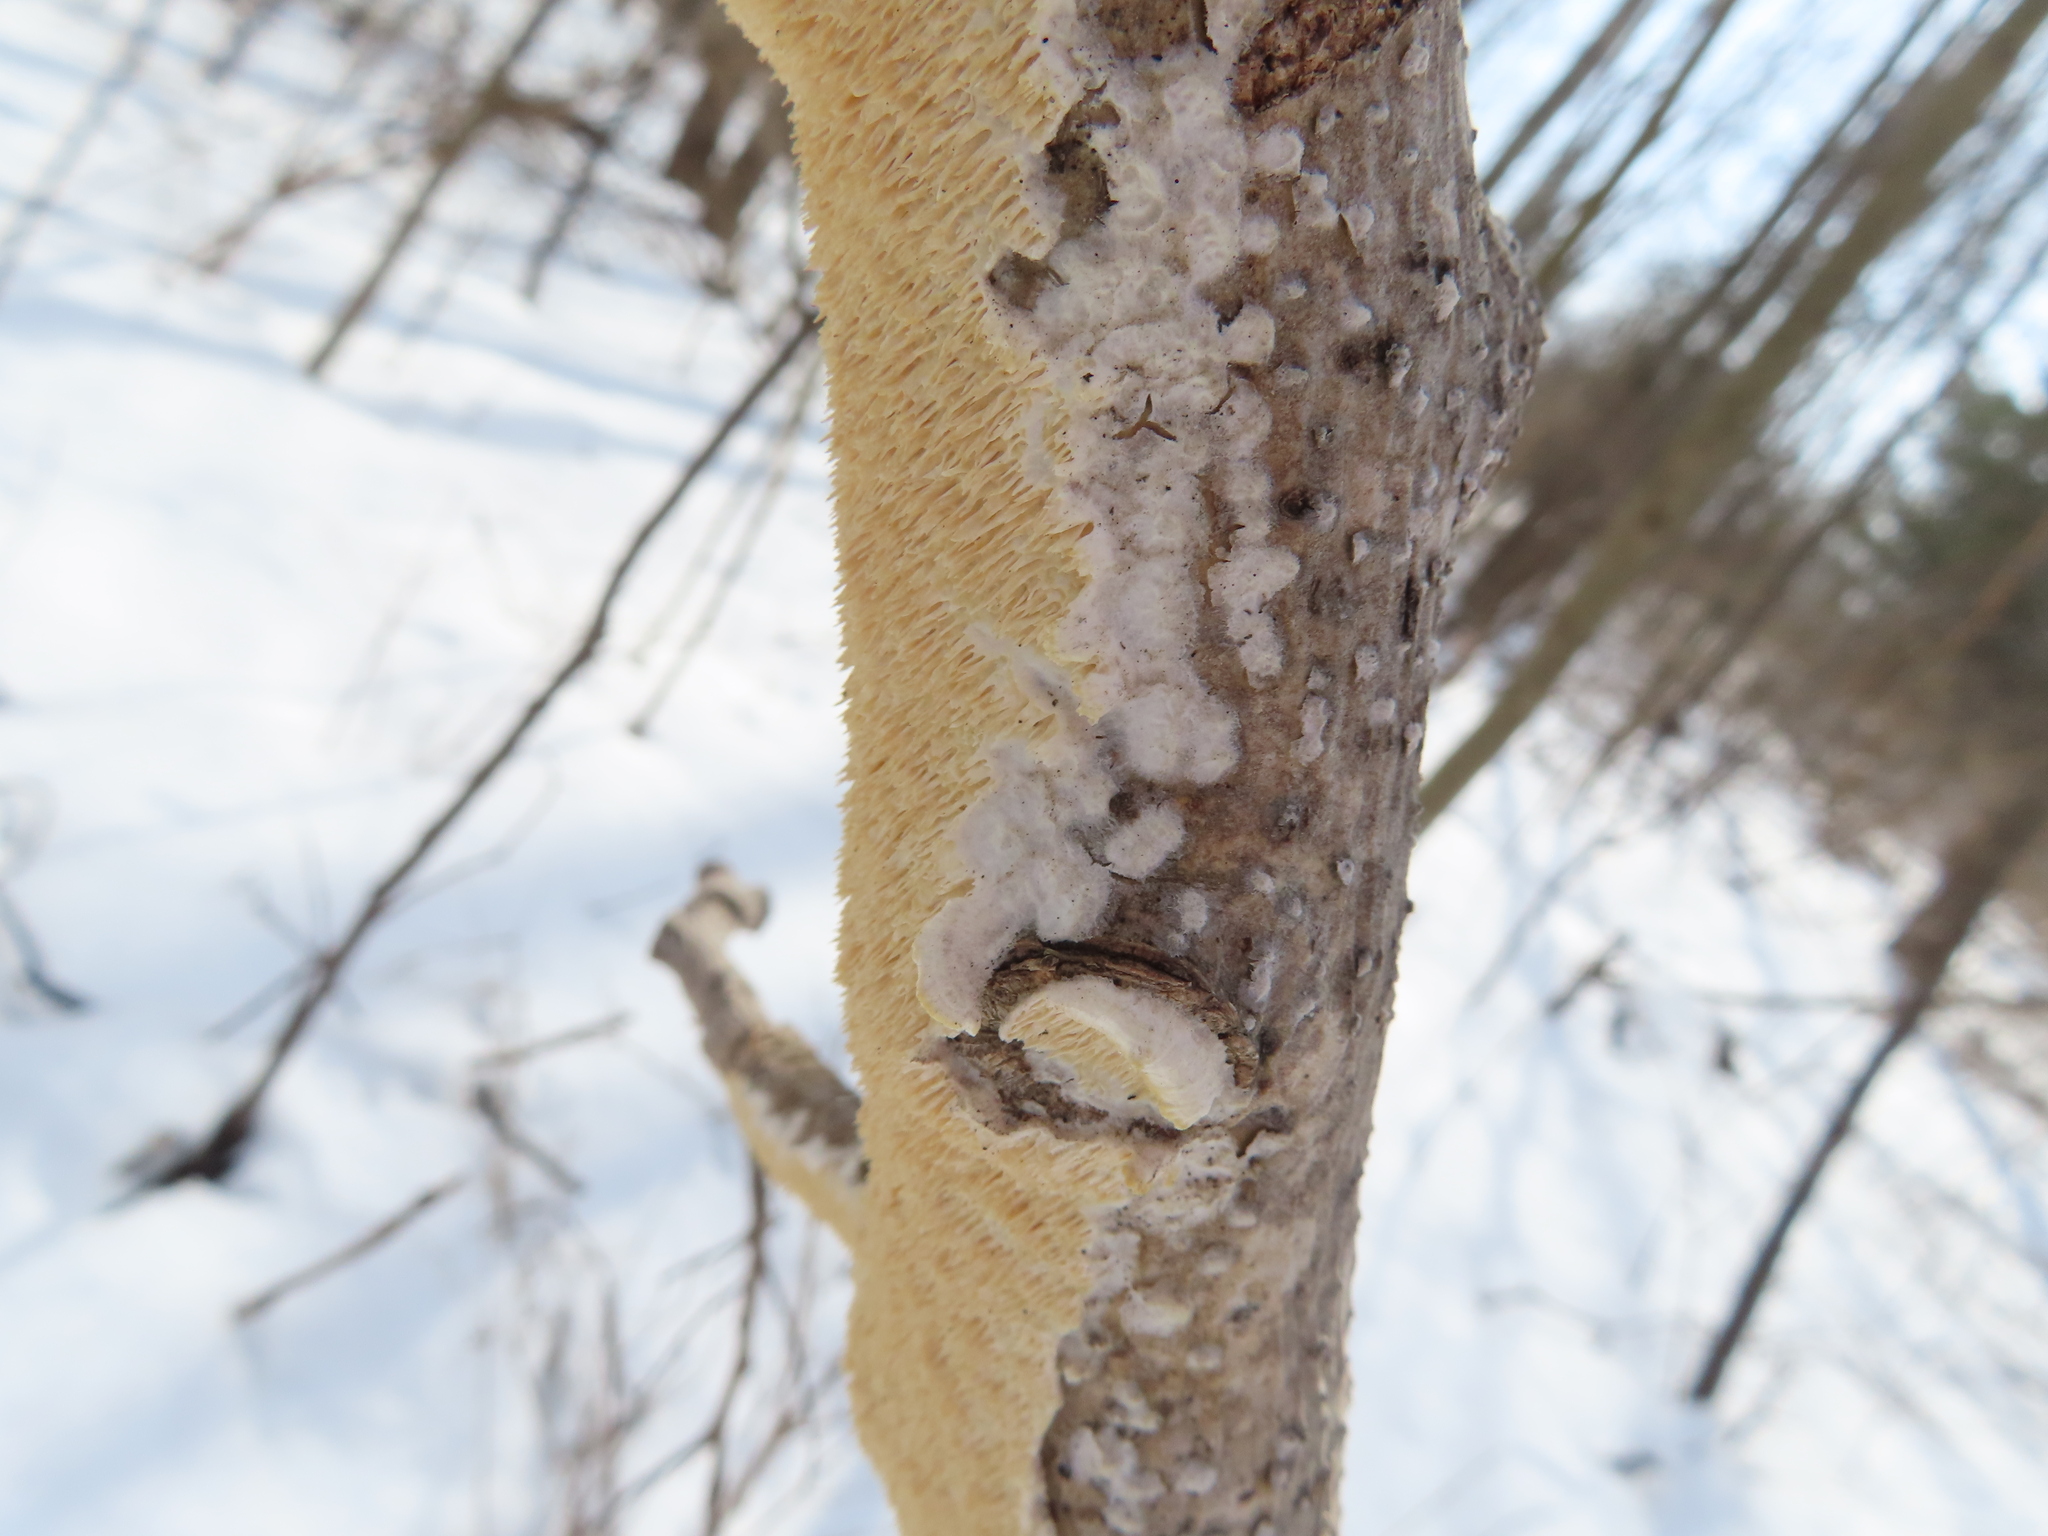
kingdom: Fungi
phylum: Basidiomycota
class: Agaricomycetes
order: Polyporales
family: Irpicaceae
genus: Irpex
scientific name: Irpex lacteus
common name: Milk-white toothed polypore
